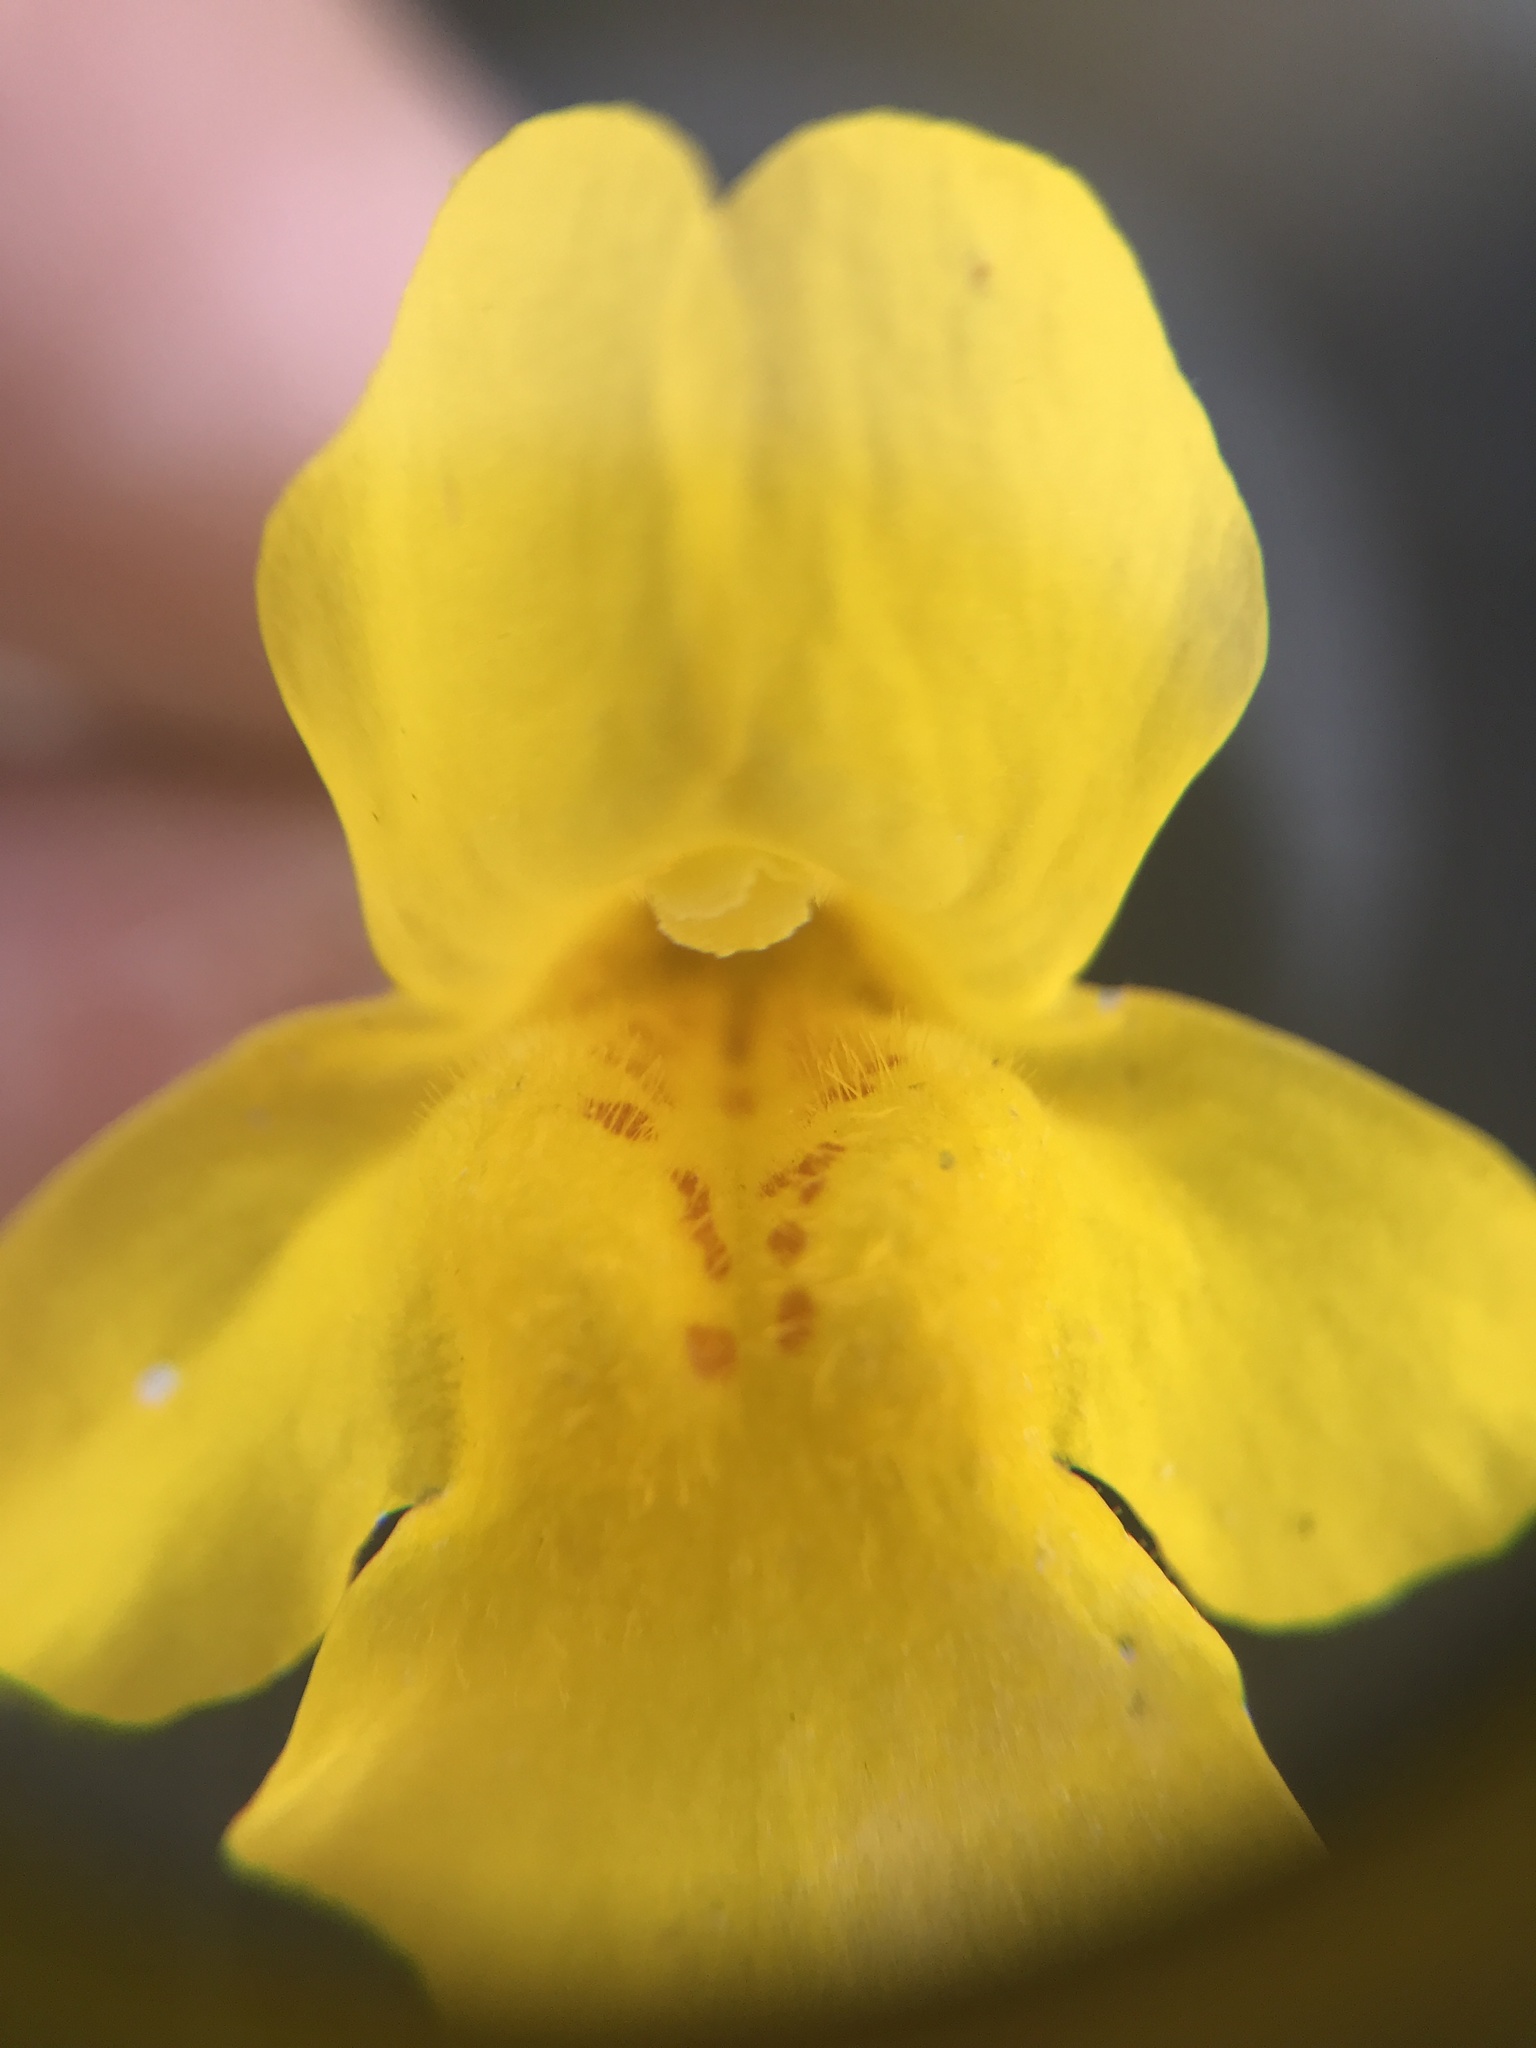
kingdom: Plantae
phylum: Tracheophyta
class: Magnoliopsida
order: Lamiales
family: Phrymaceae
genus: Erythranthe
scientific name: Erythranthe guttata
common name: Monkeyflower
